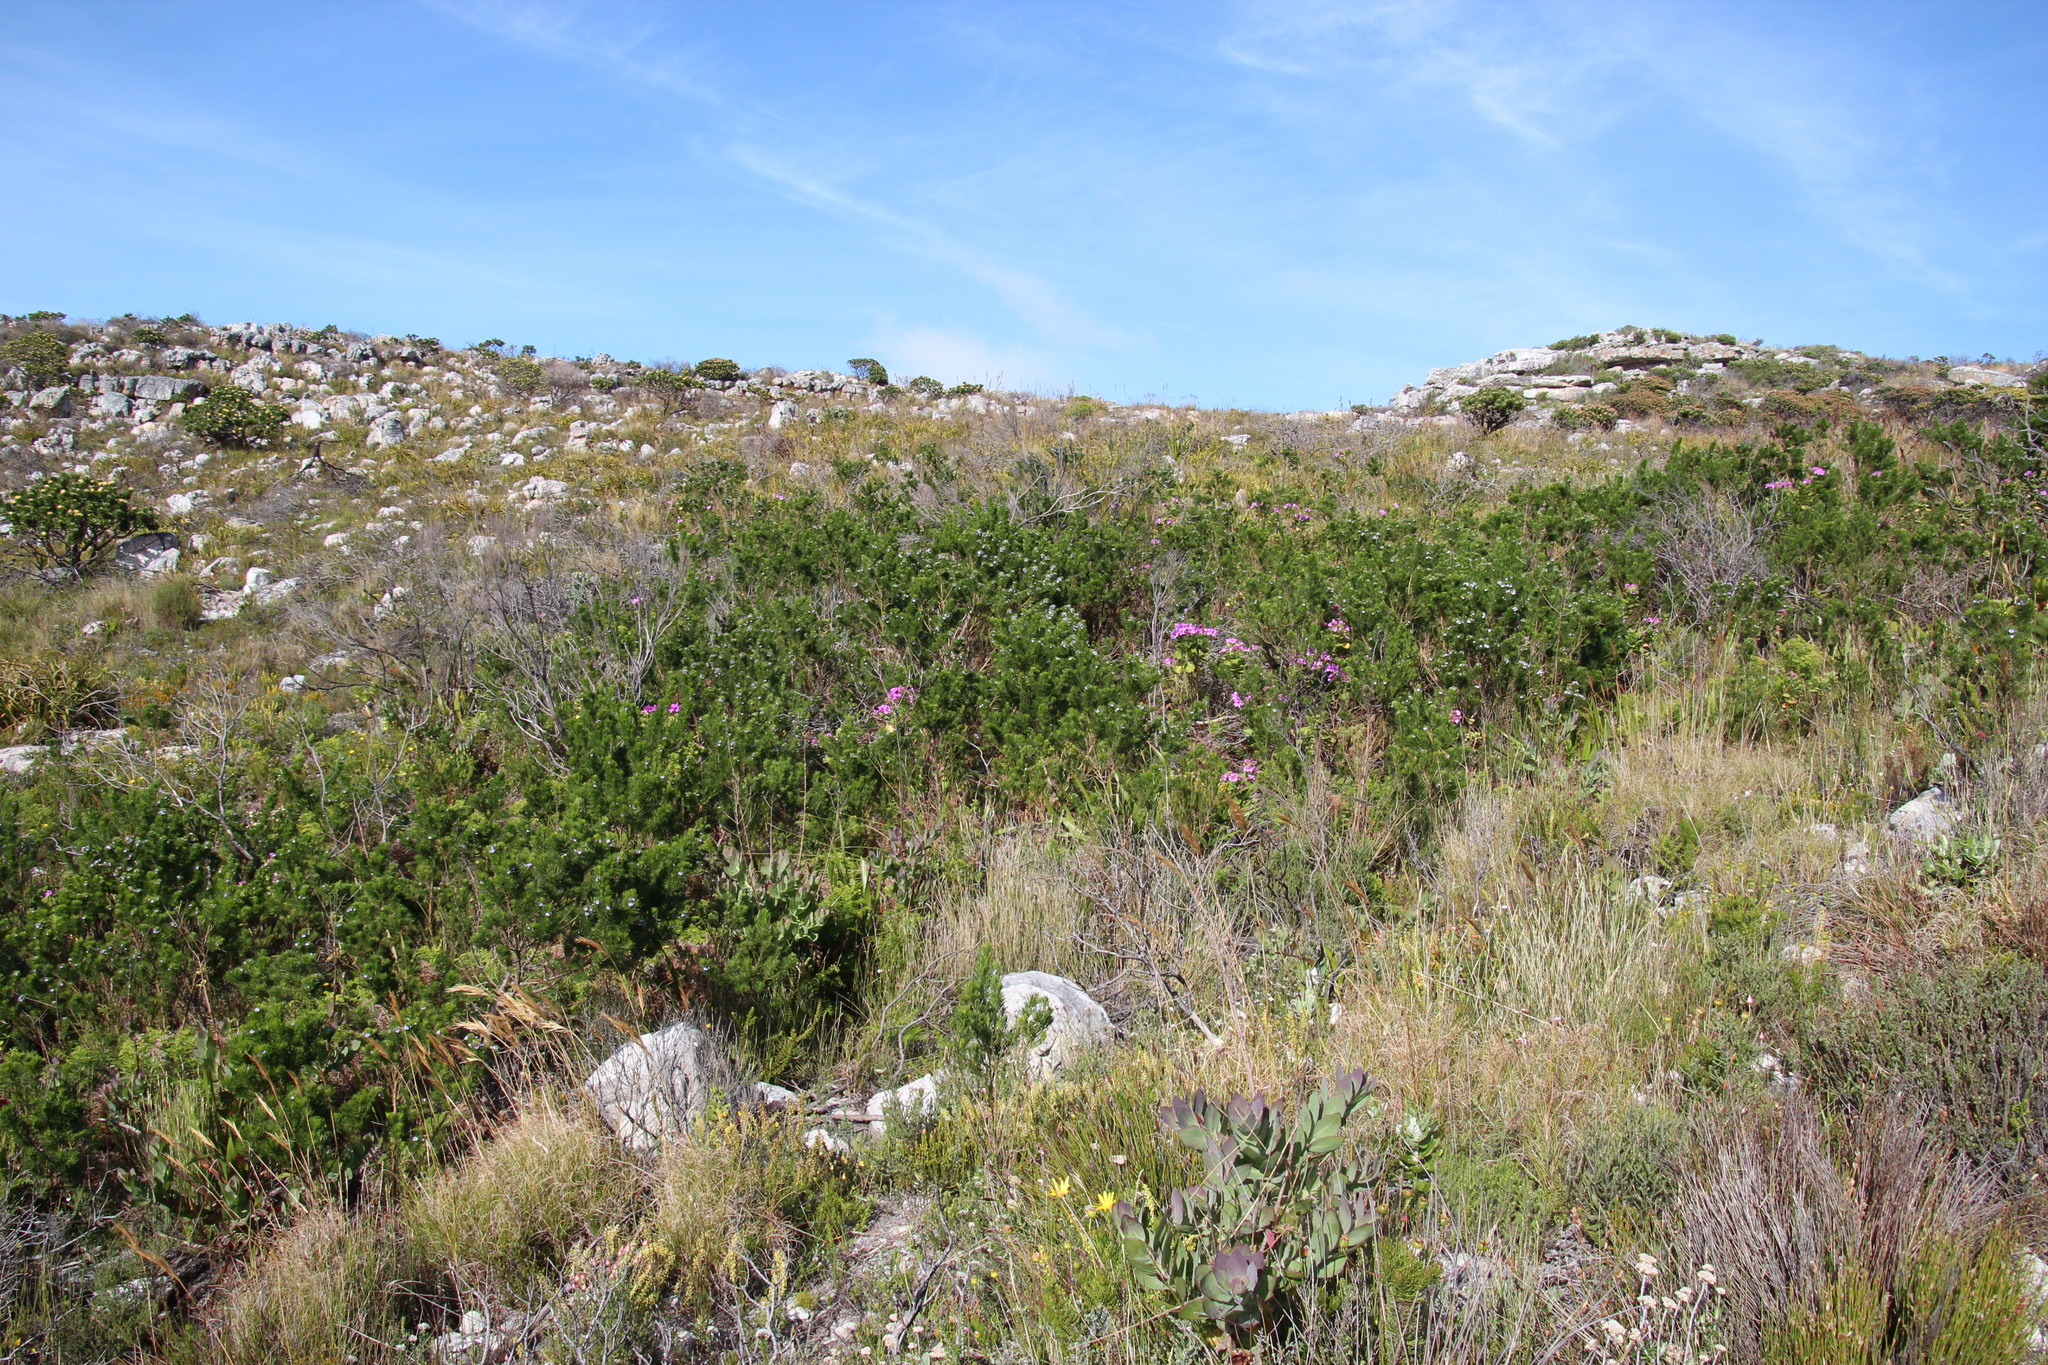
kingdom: Plantae
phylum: Tracheophyta
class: Magnoliopsida
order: Fabales
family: Fabaceae
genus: Psoralea
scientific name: Psoralea pinnata
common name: African scurfpea
